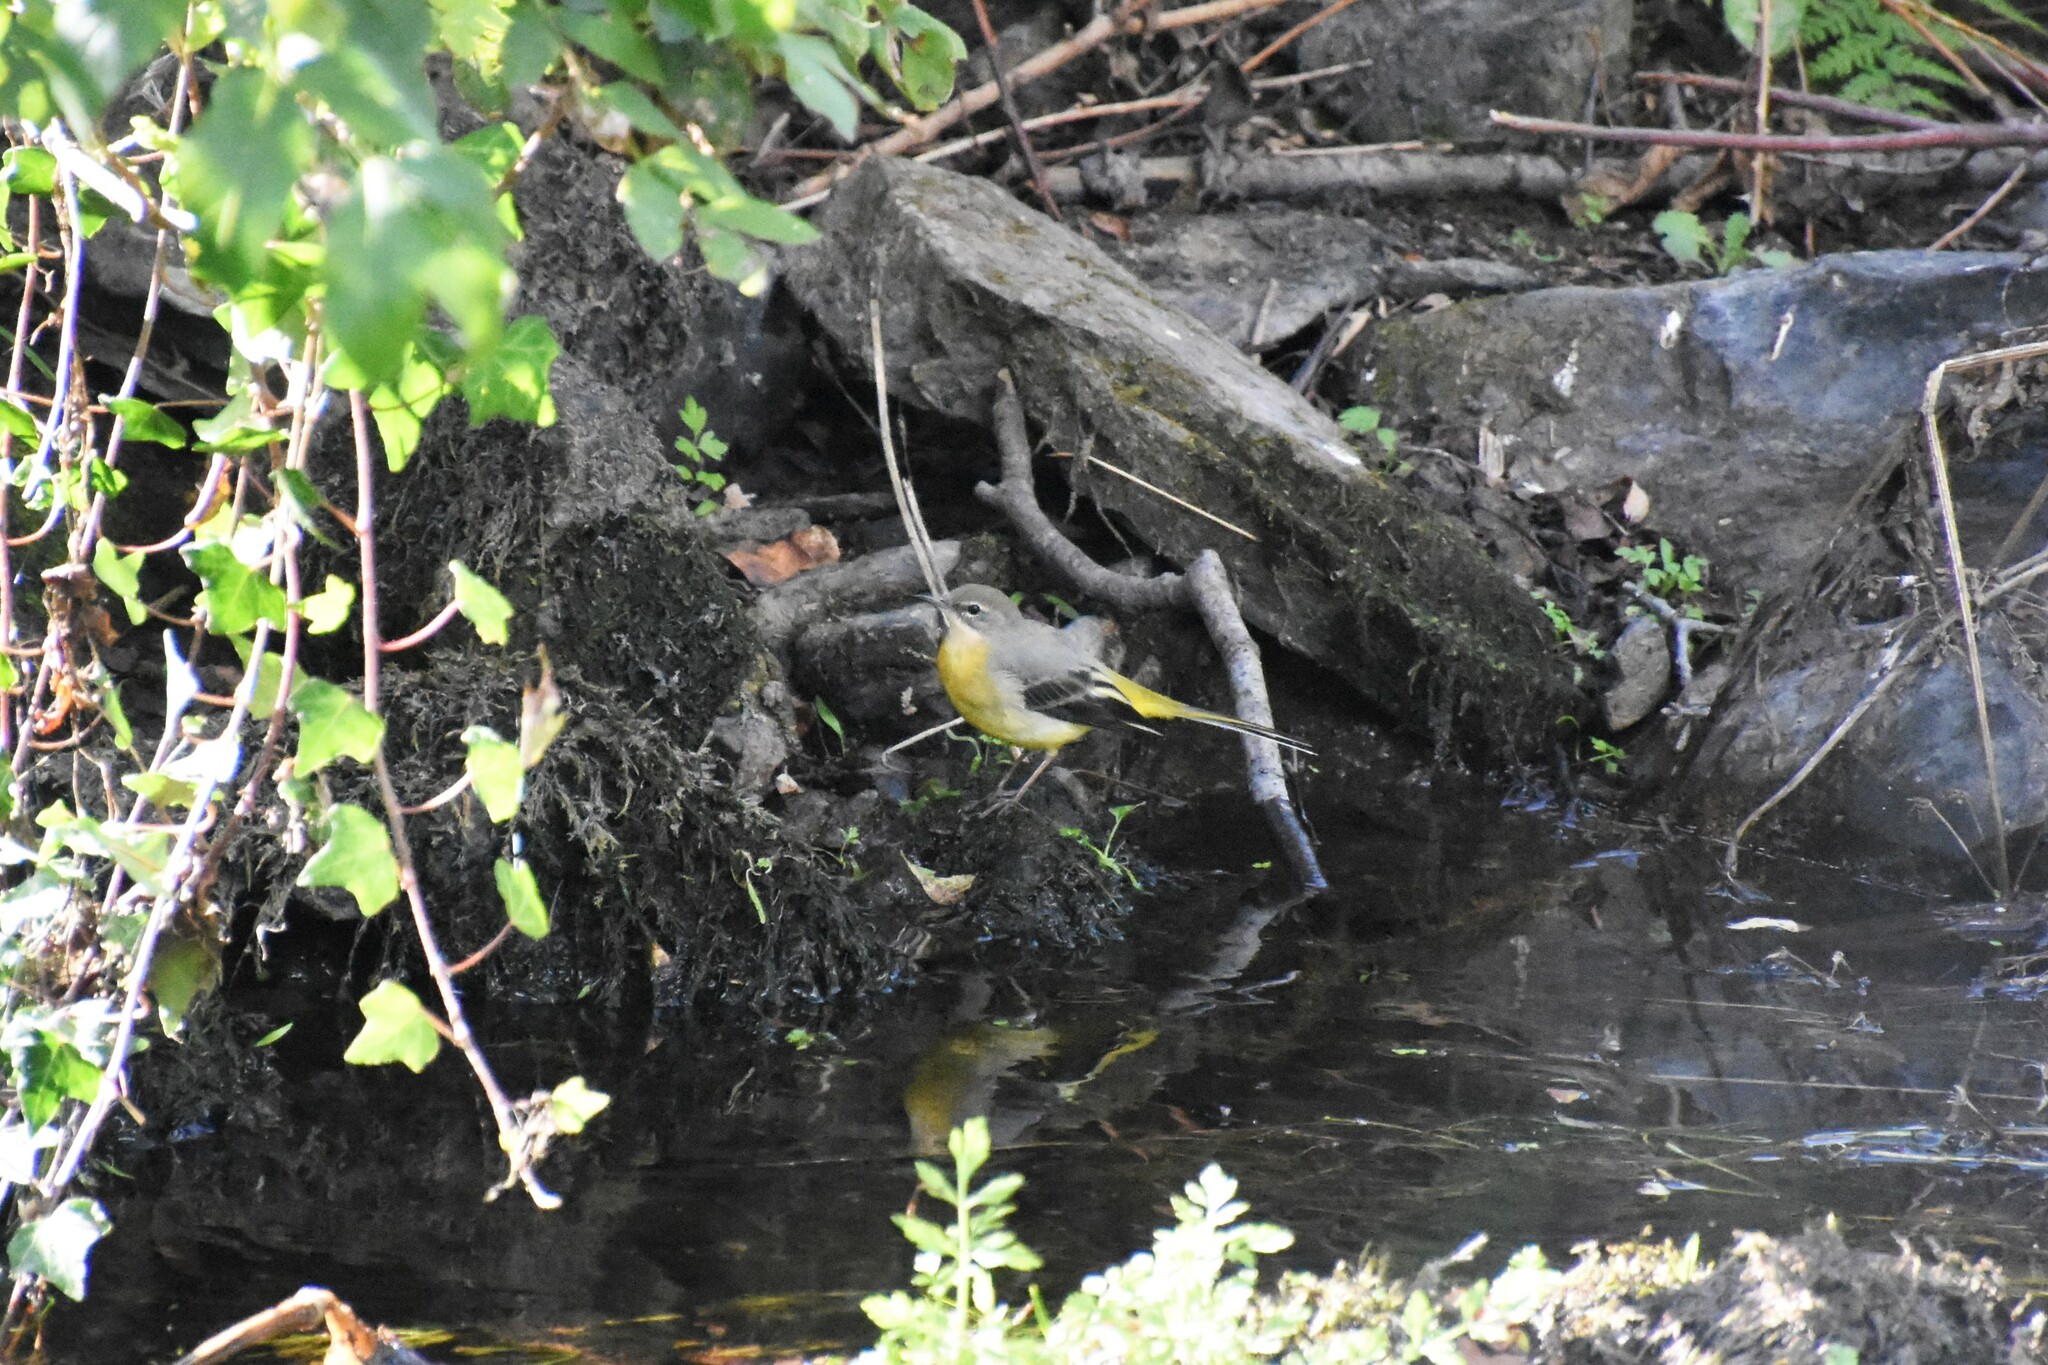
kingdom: Animalia
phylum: Chordata
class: Aves
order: Passeriformes
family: Motacillidae
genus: Motacilla
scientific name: Motacilla cinerea
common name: Grey wagtail
